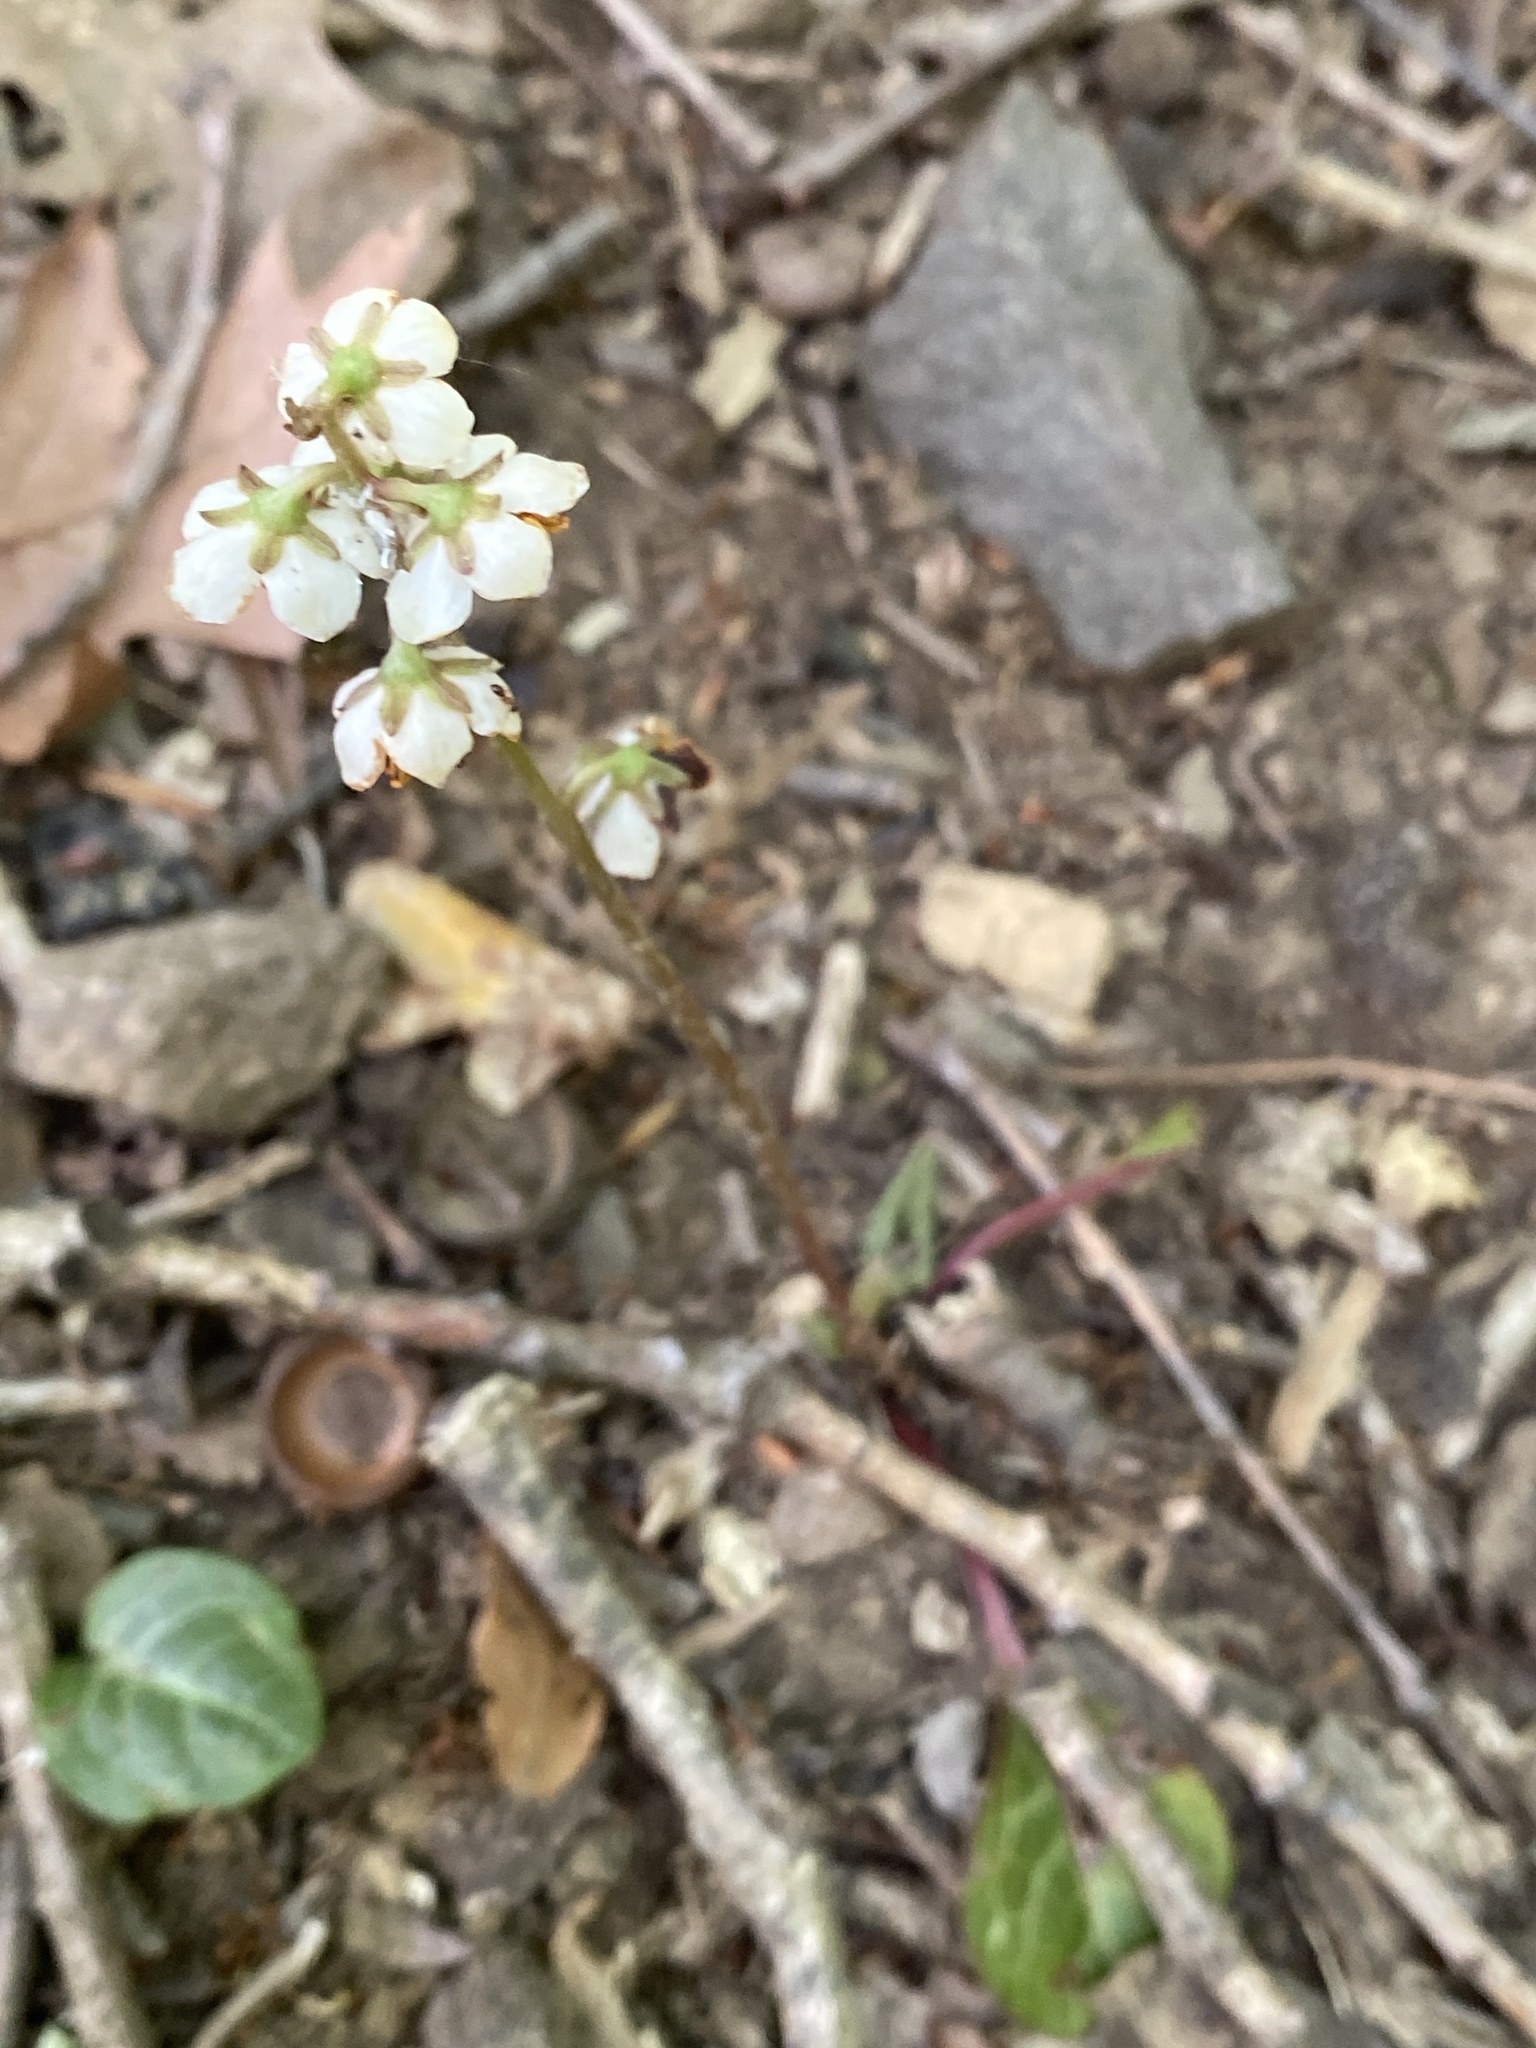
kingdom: Plantae
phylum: Tracheophyta
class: Magnoliopsida
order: Ericales
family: Ericaceae
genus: Pyrola
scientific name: Pyrola americana
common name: American wintergreen
